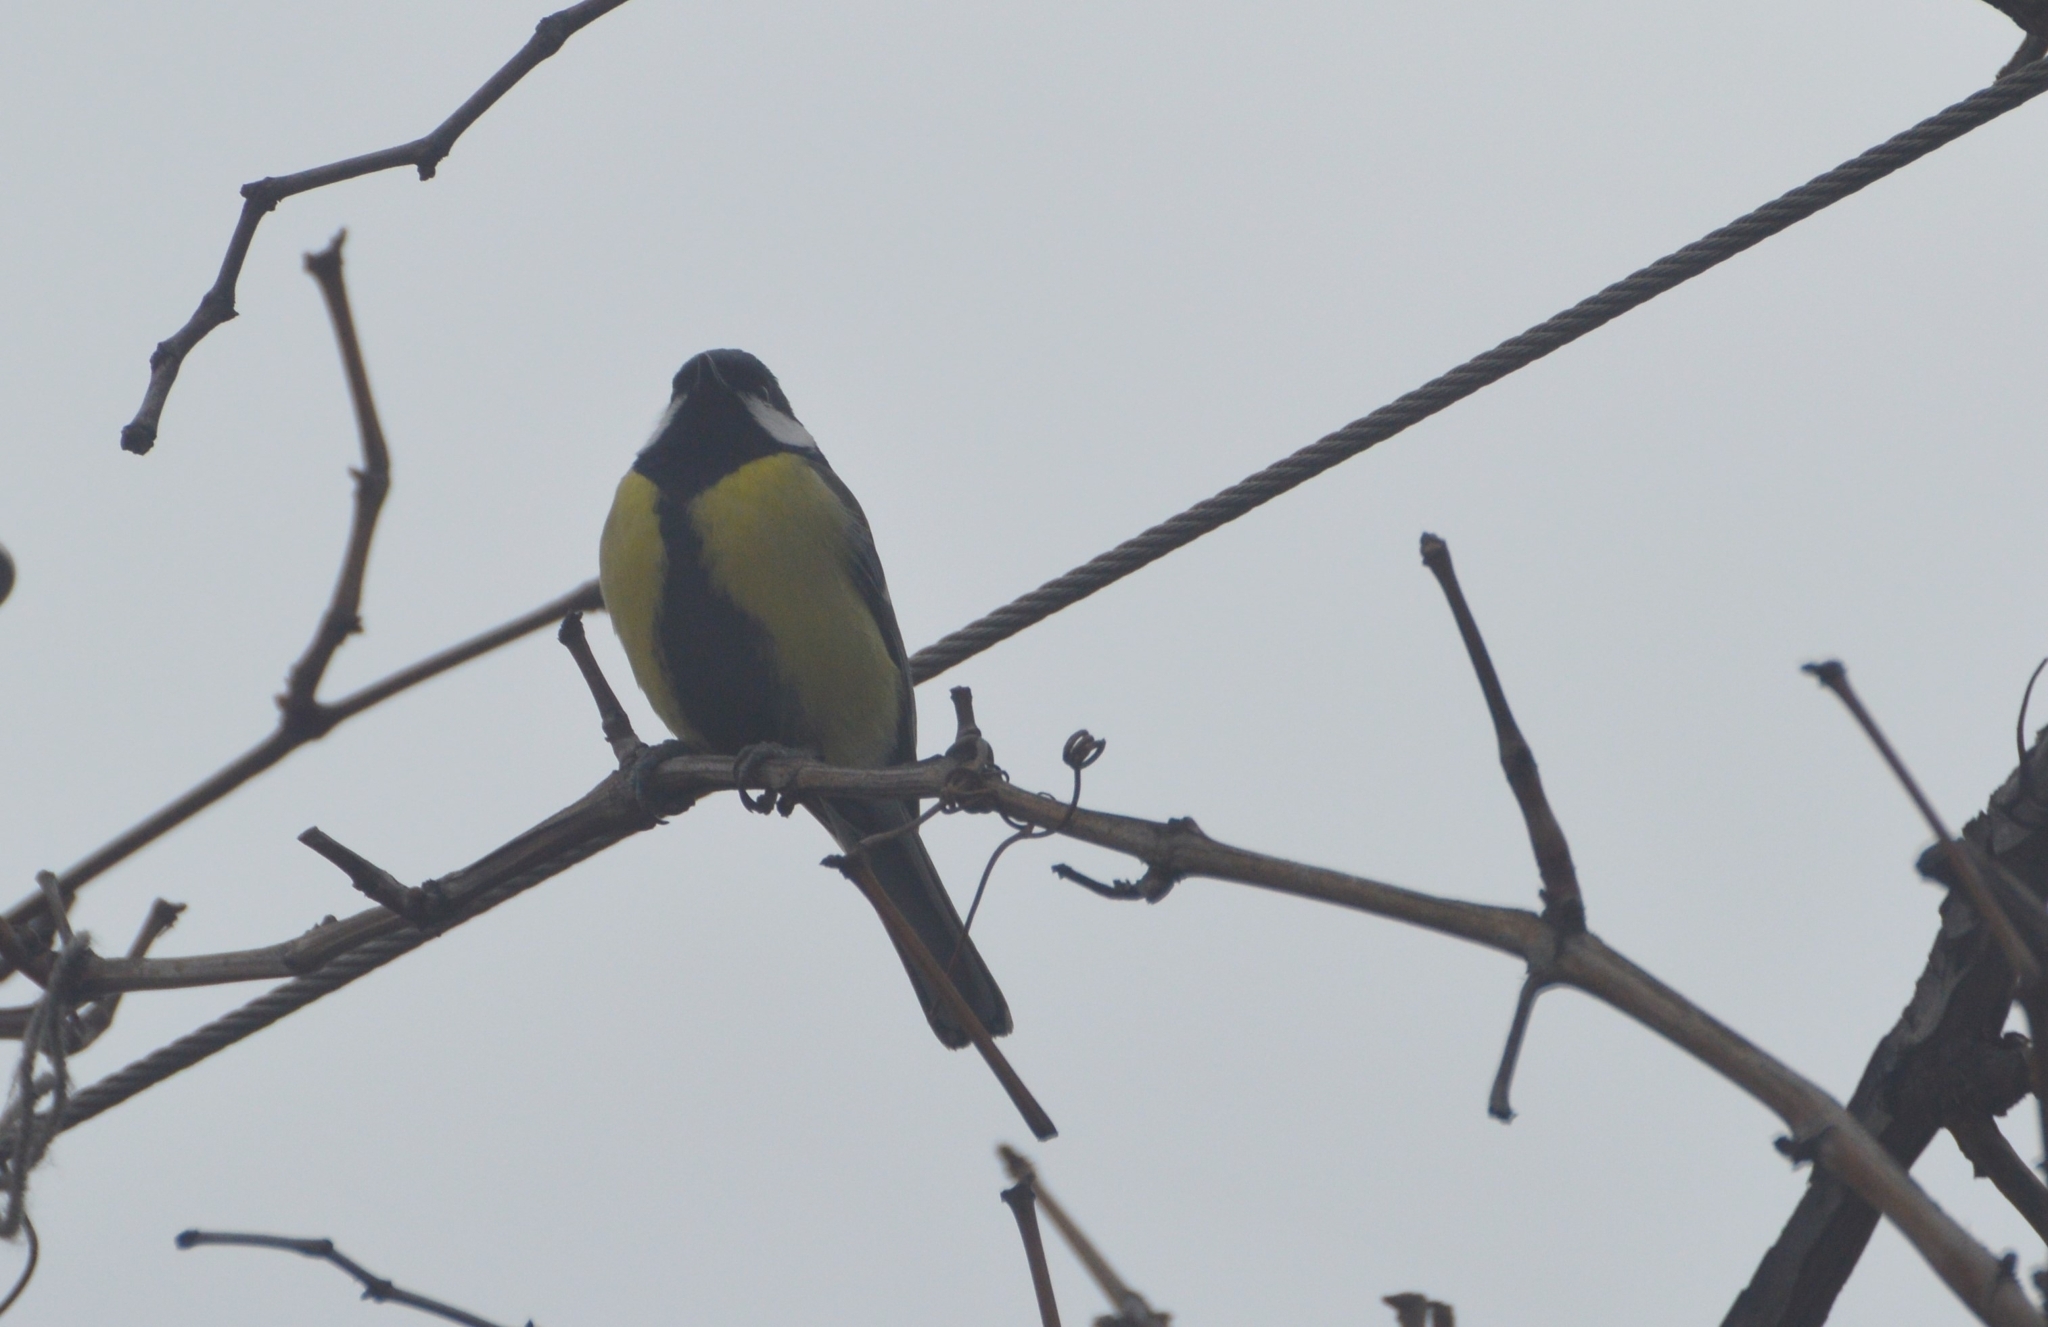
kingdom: Animalia
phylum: Chordata
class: Aves
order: Passeriformes
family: Paridae
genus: Parus
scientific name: Parus major
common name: Great tit
